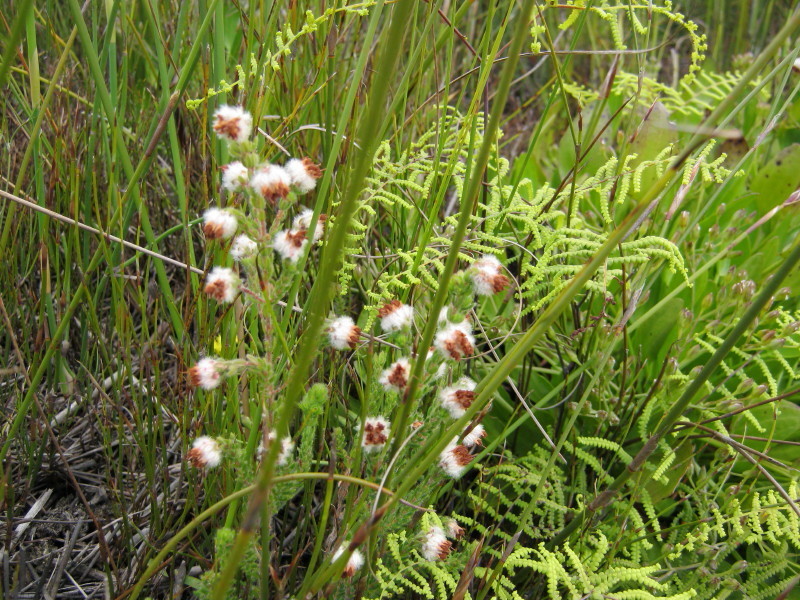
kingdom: Plantae
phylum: Tracheophyta
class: Magnoliopsida
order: Ericales
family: Ericaceae
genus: Erica
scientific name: Erica flaccida
